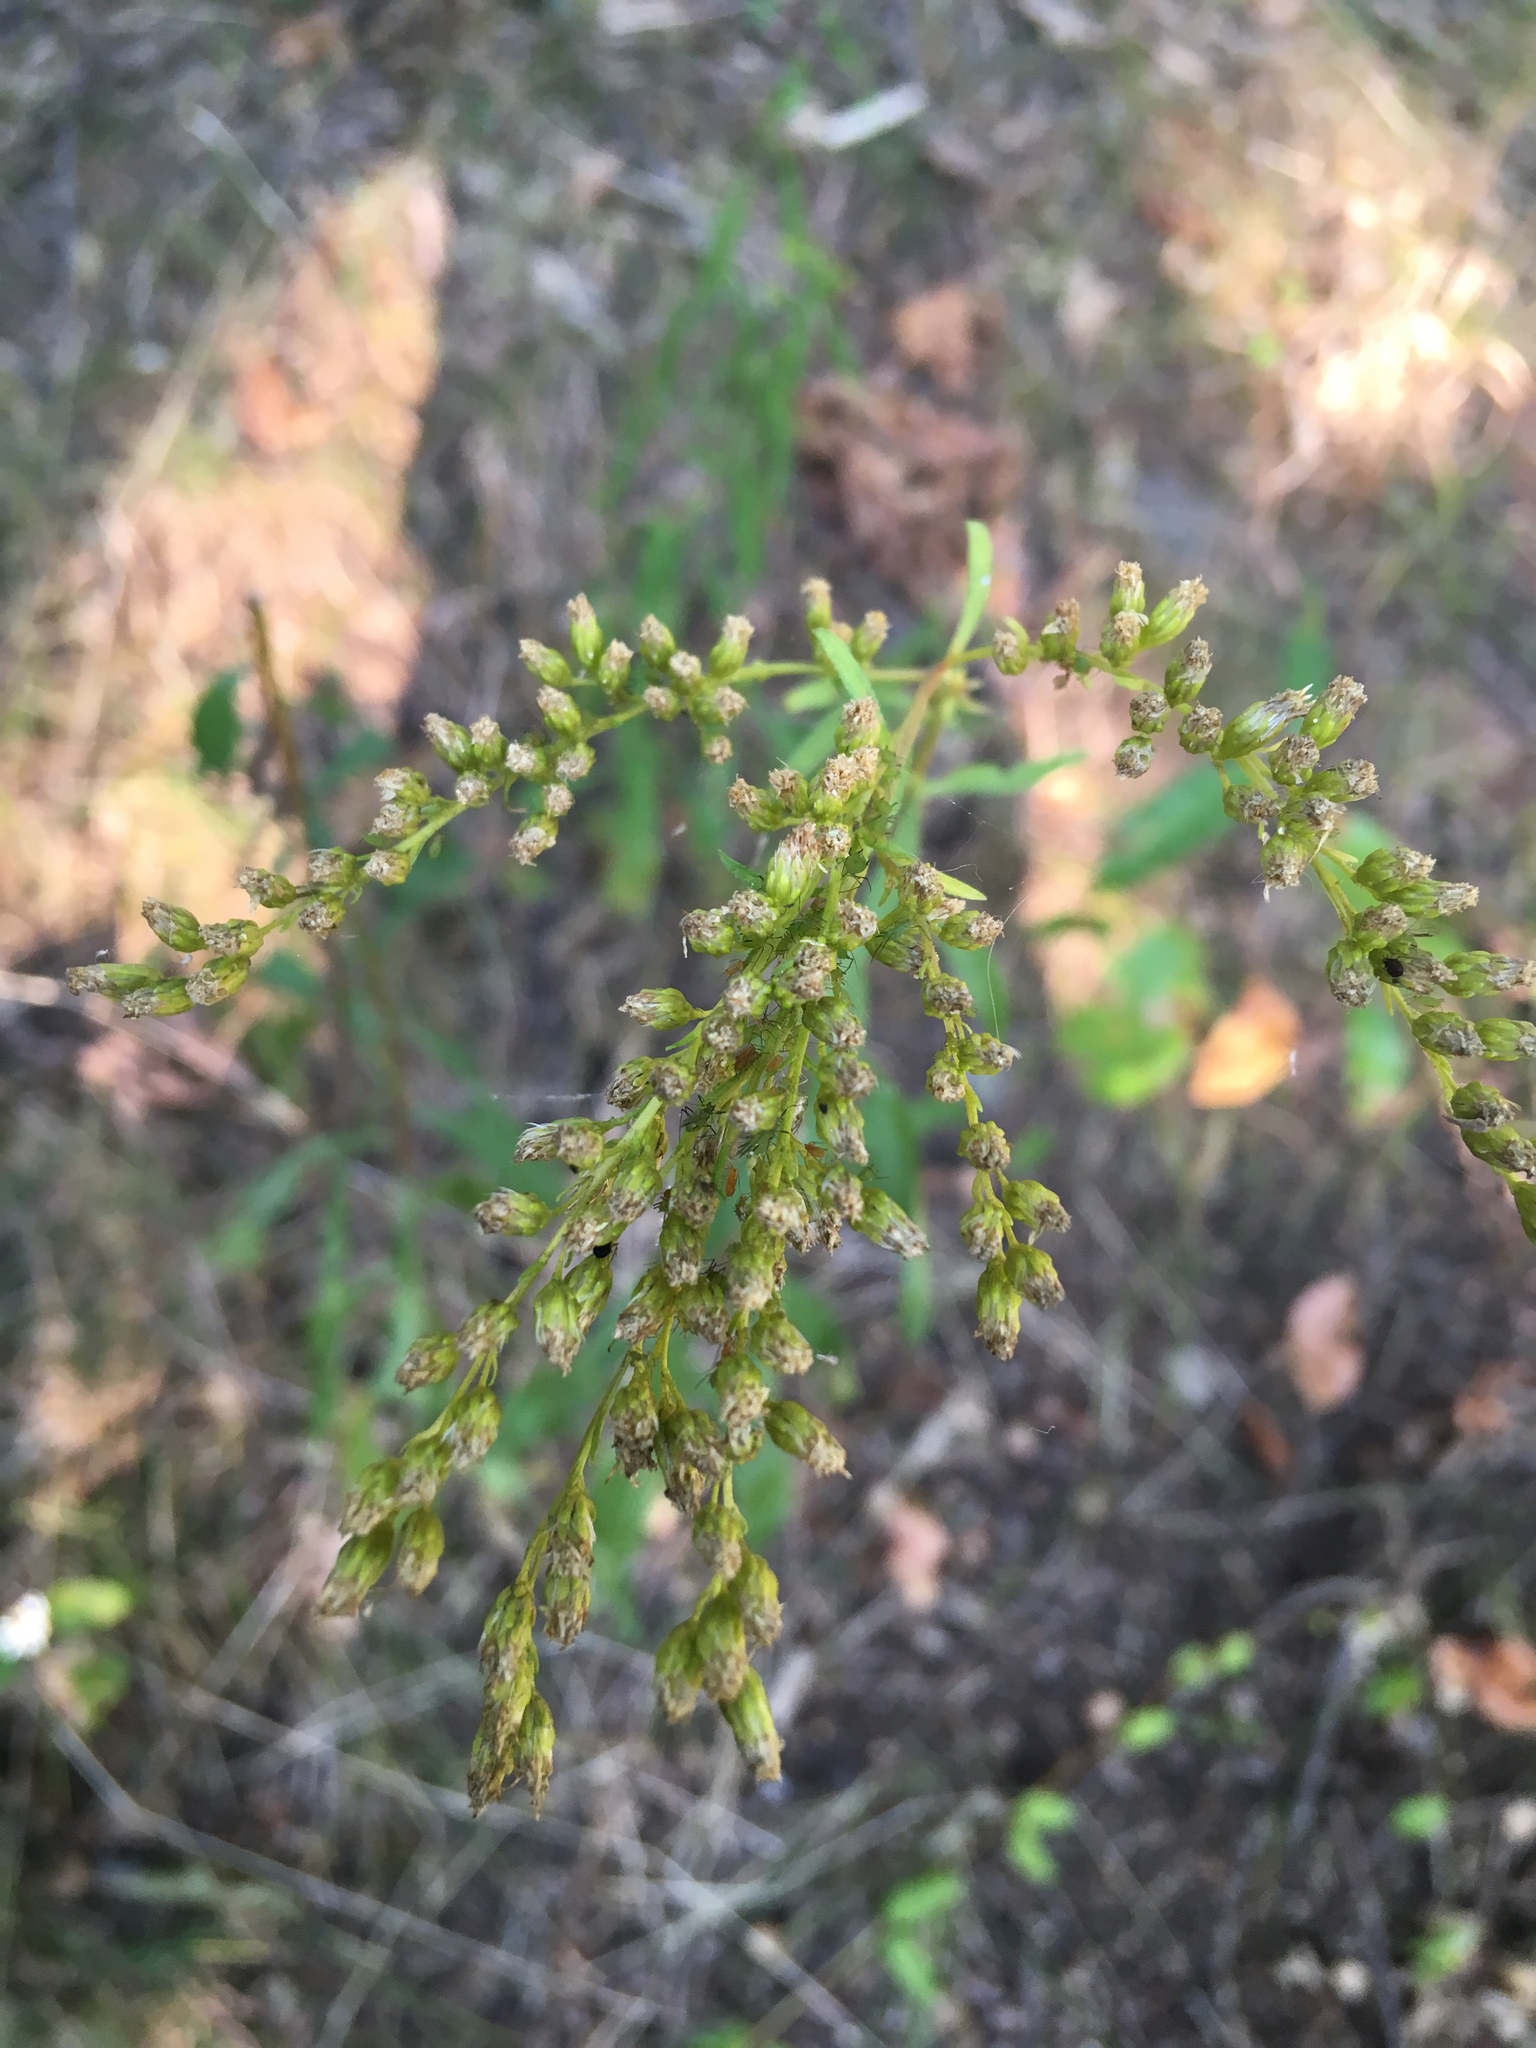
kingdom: Plantae
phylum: Tracheophyta
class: Magnoliopsida
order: Asterales
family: Asteraceae
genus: Solidago
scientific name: Solidago juncea
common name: Early goldenrod
